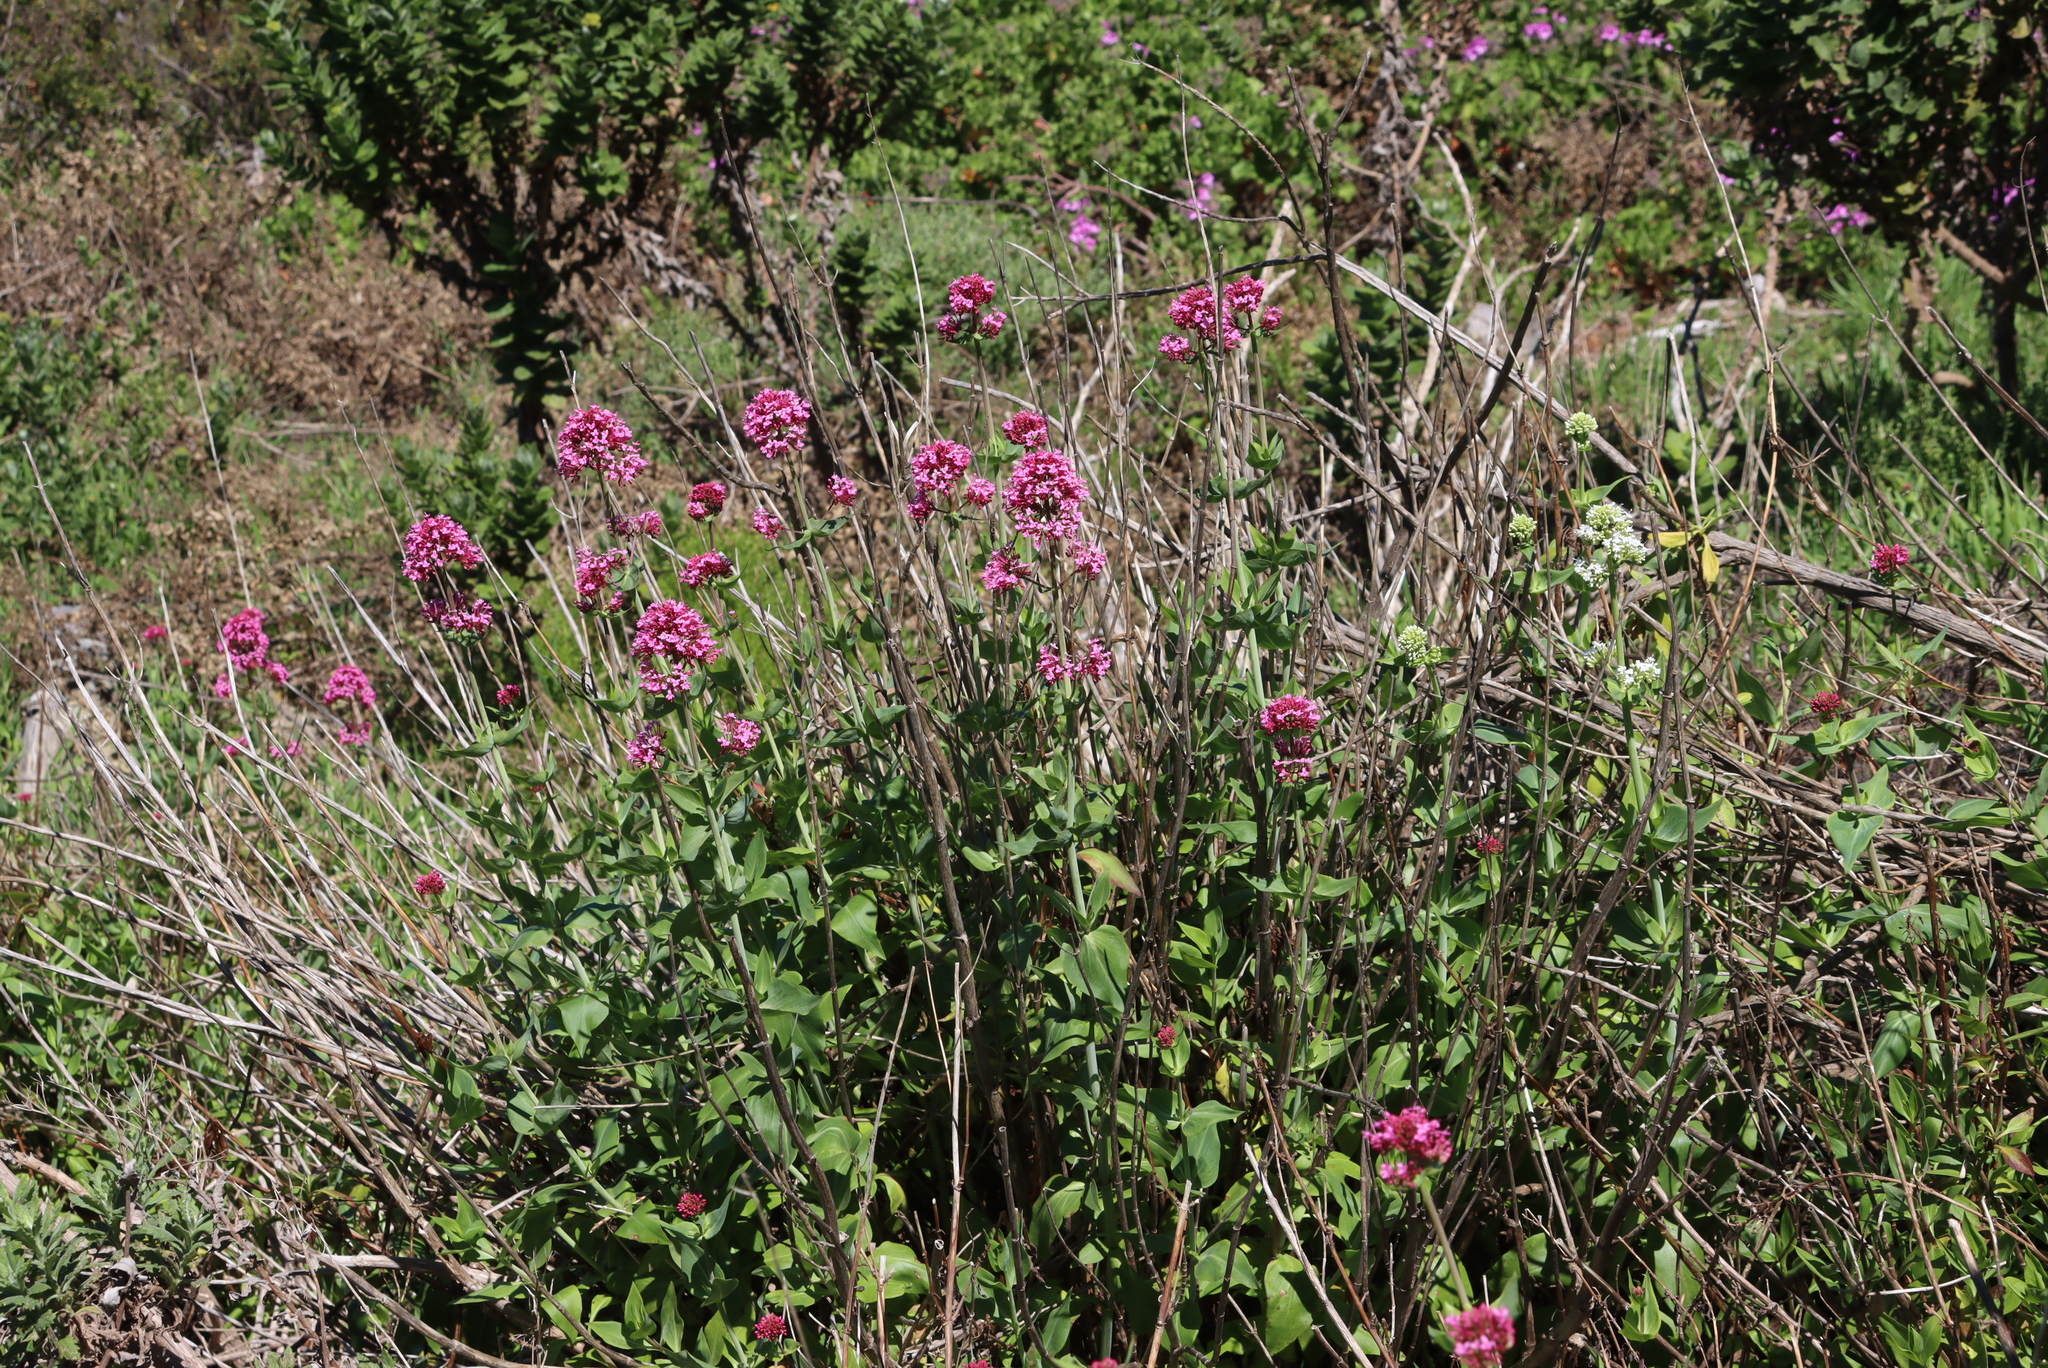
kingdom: Plantae
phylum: Tracheophyta
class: Magnoliopsida
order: Dipsacales
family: Caprifoliaceae
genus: Centranthus
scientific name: Centranthus ruber
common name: Red valerian
